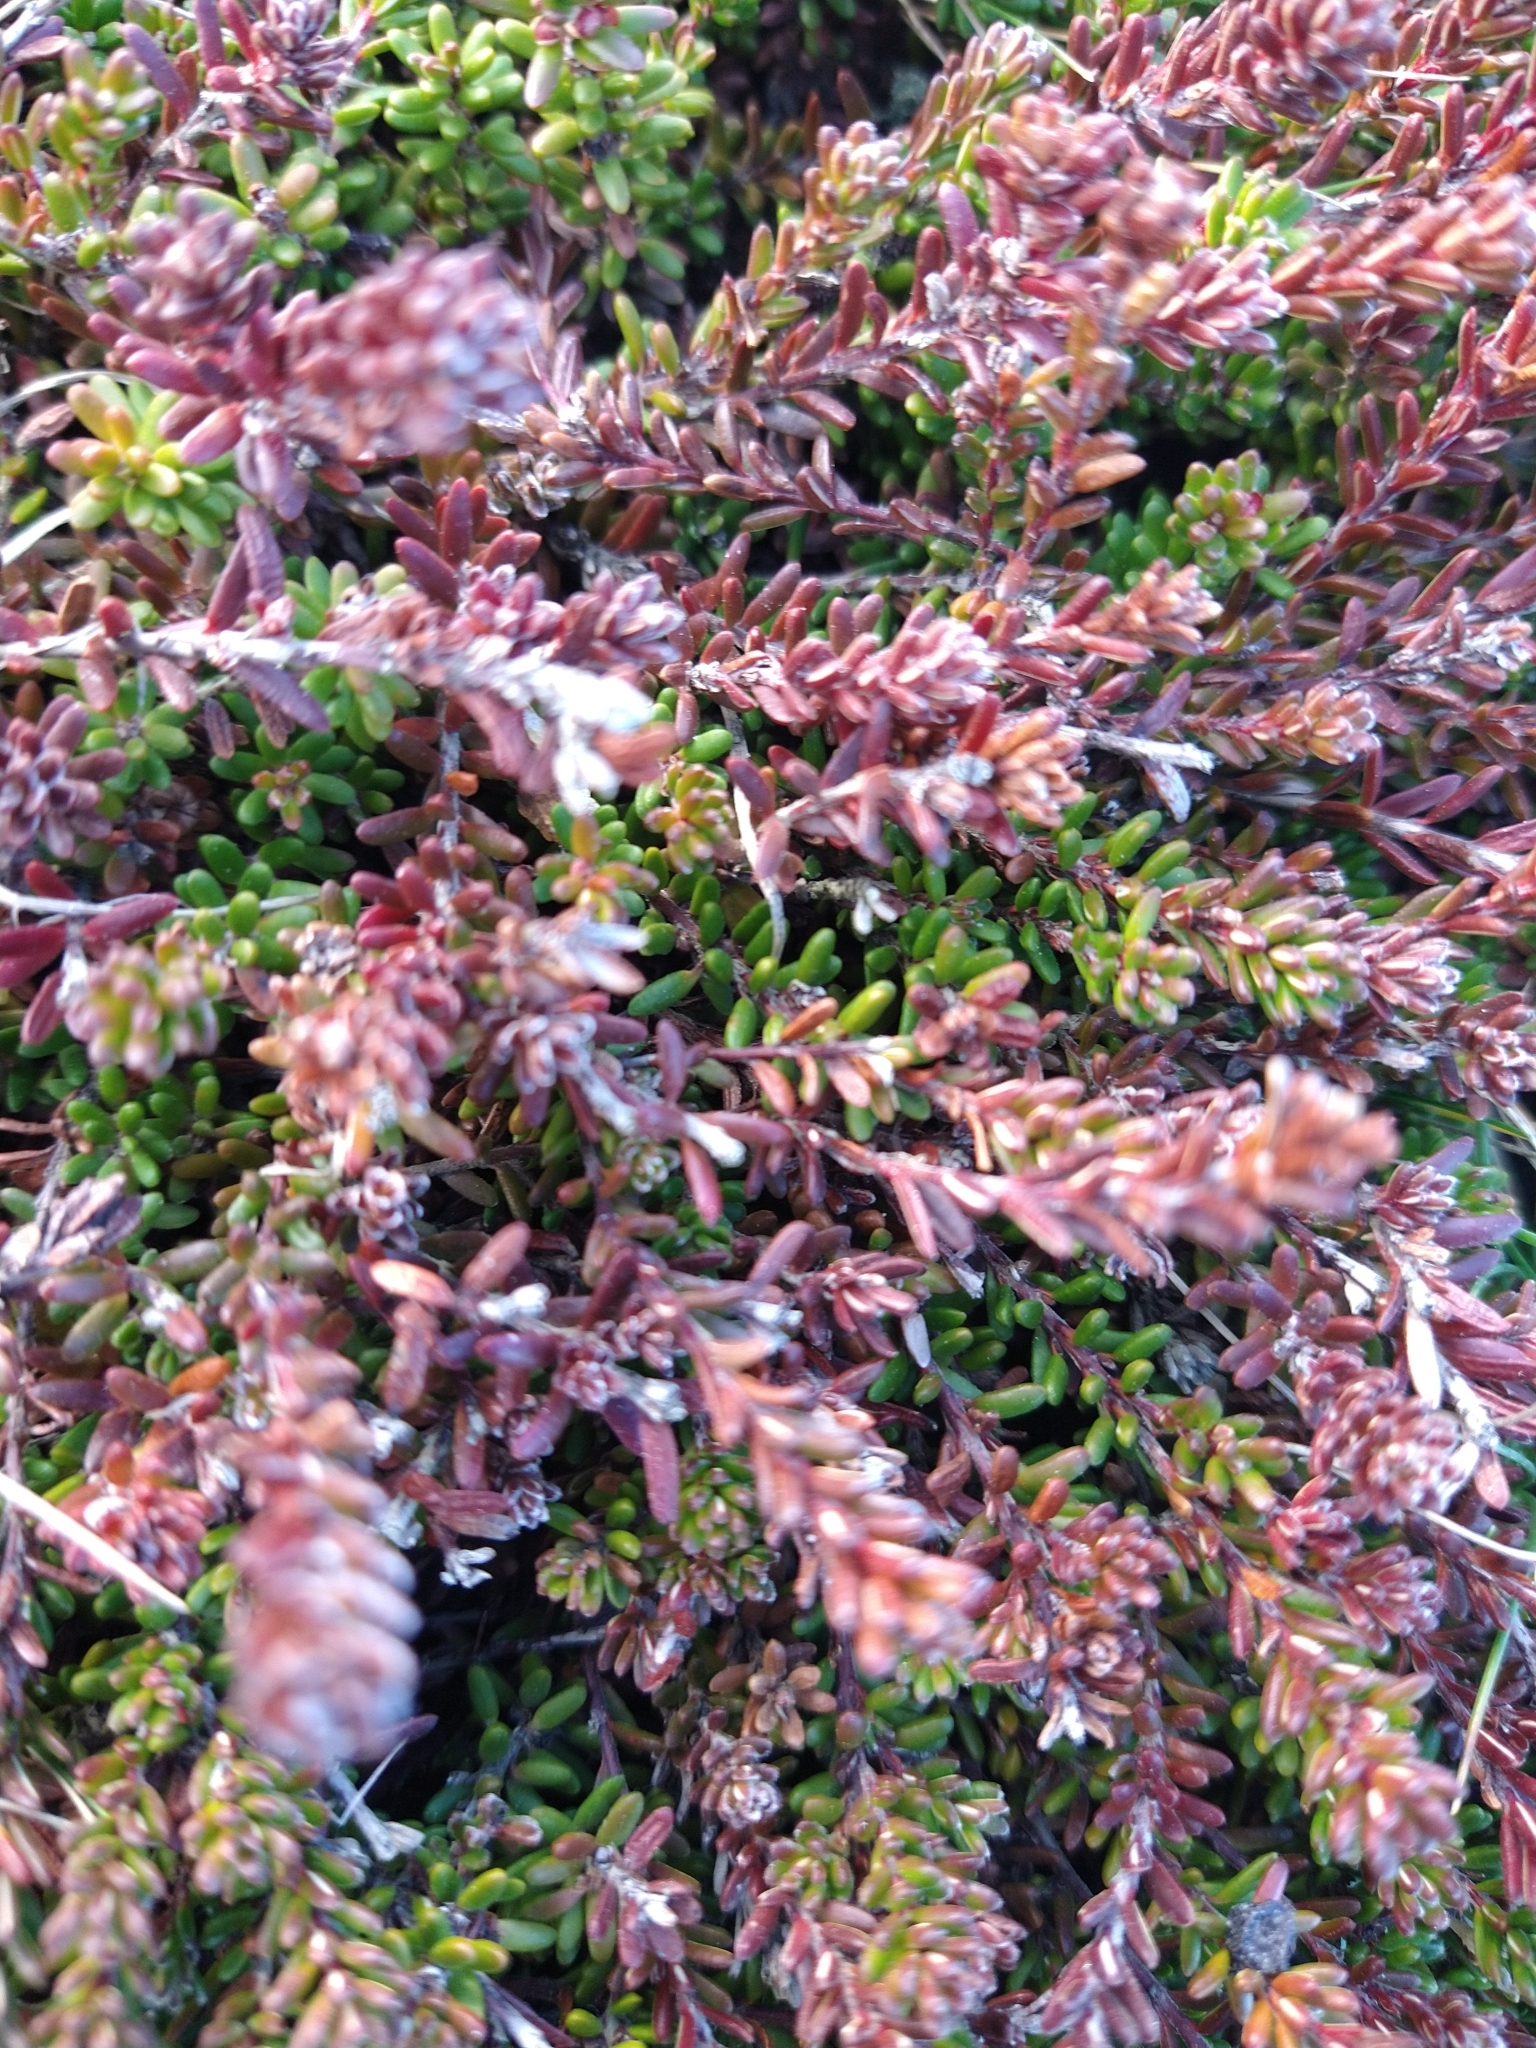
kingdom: Plantae
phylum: Tracheophyta
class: Magnoliopsida
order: Ericales
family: Ericaceae
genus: Empetrum
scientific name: Empetrum rubrum
